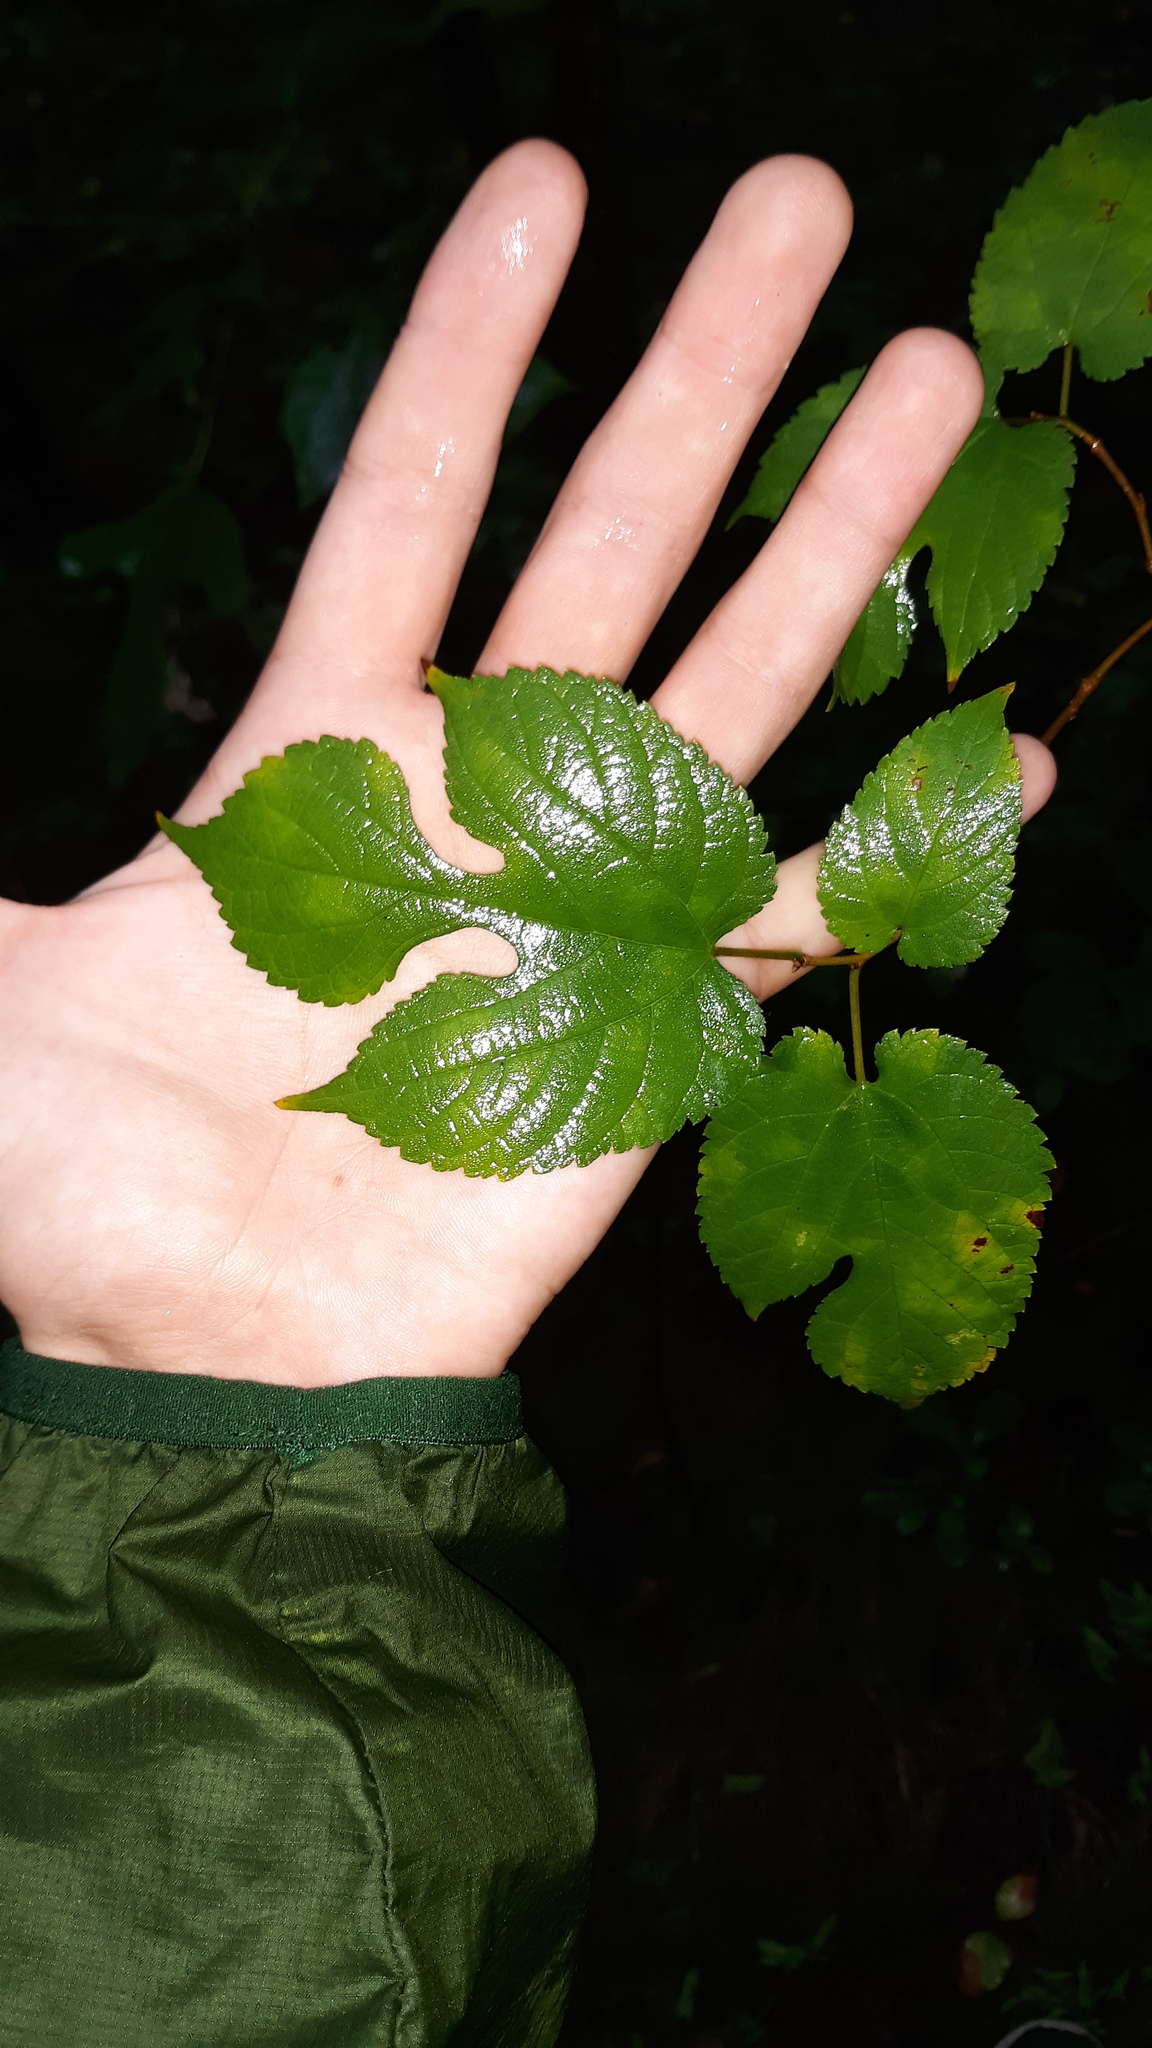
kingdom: Plantae
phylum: Tracheophyta
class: Magnoliopsida
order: Rosales
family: Moraceae
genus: Morus
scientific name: Morus rubra
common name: Red mulberry
